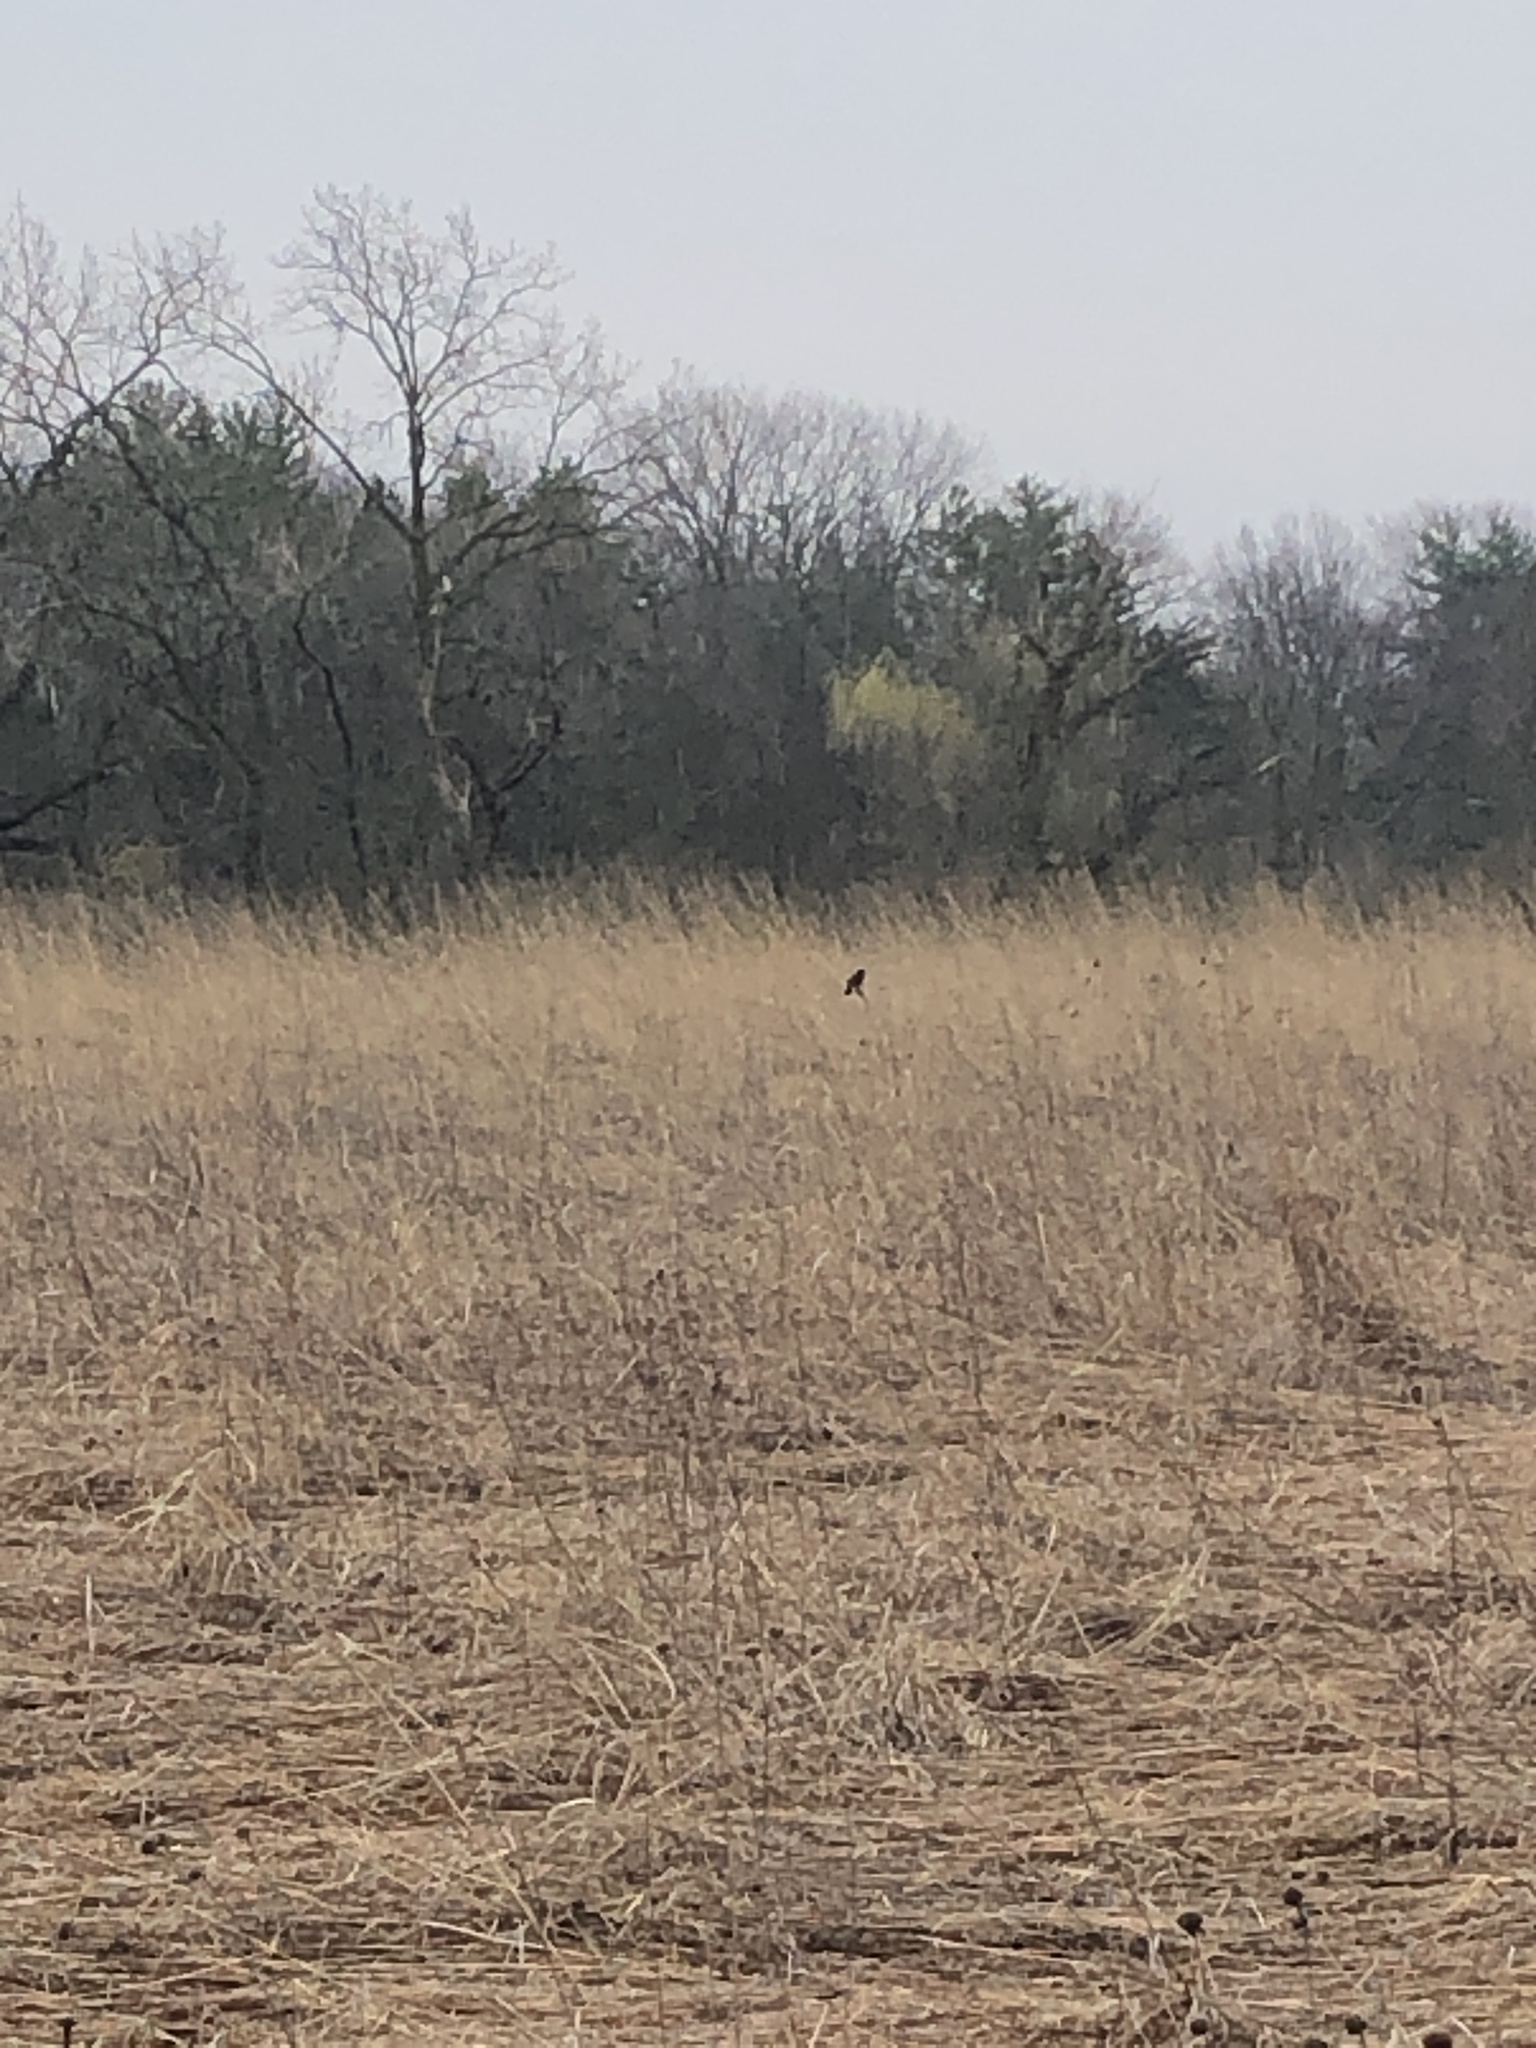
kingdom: Animalia
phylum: Chordata
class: Aves
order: Passeriformes
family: Icteridae
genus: Agelaius
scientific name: Agelaius phoeniceus
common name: Red-winged blackbird
